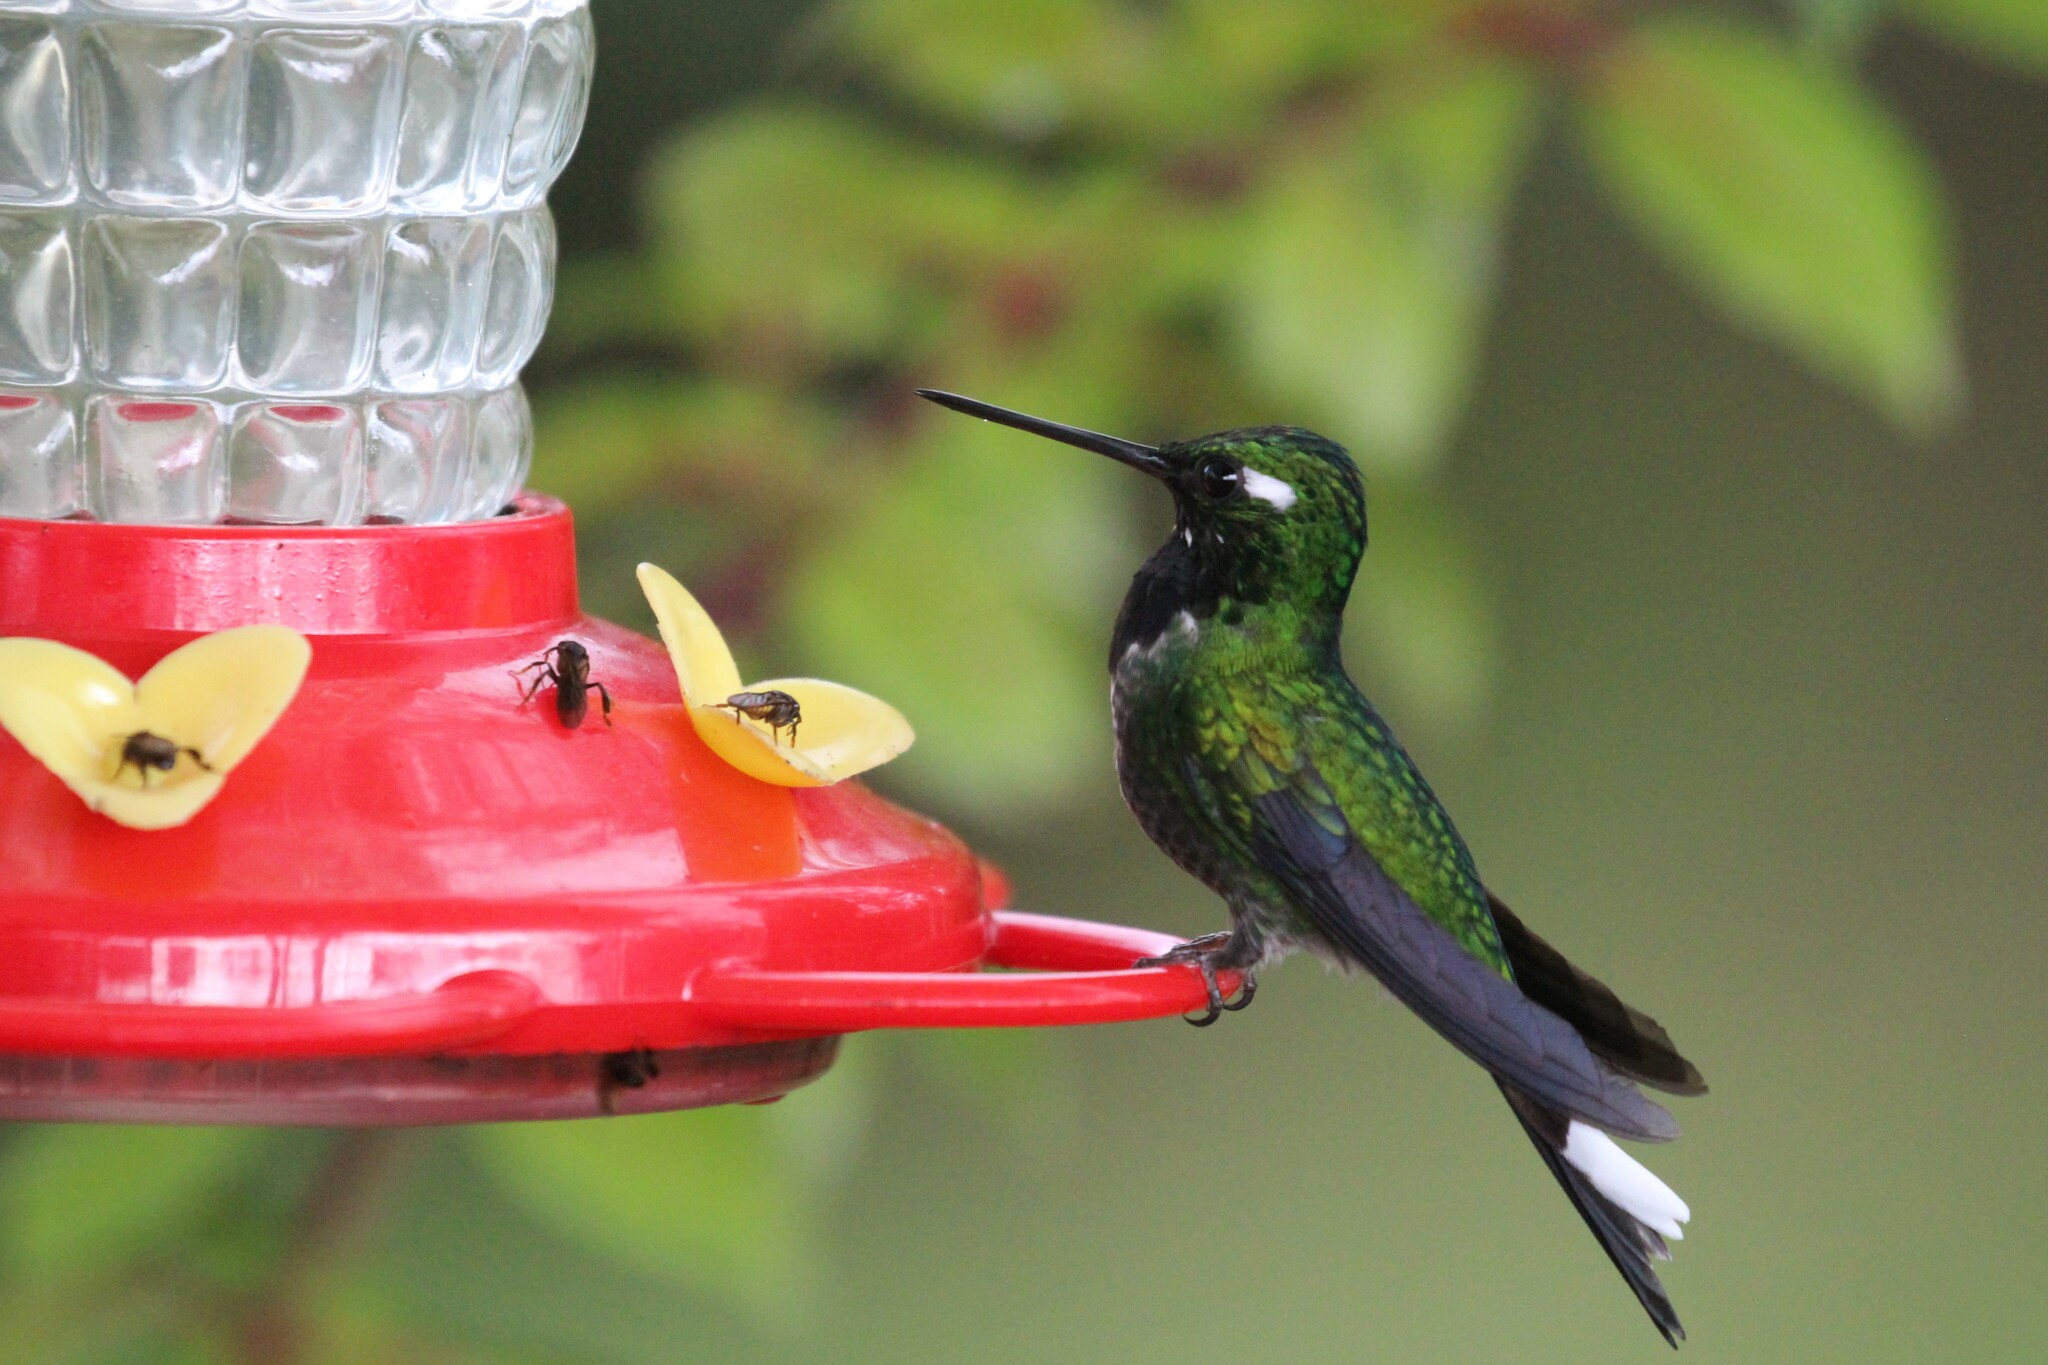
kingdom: Animalia
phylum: Chordata
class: Aves
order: Apodiformes
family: Trochilidae
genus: Urosticte
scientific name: Urosticte benjamini
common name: Purple-bibbed whitetip
